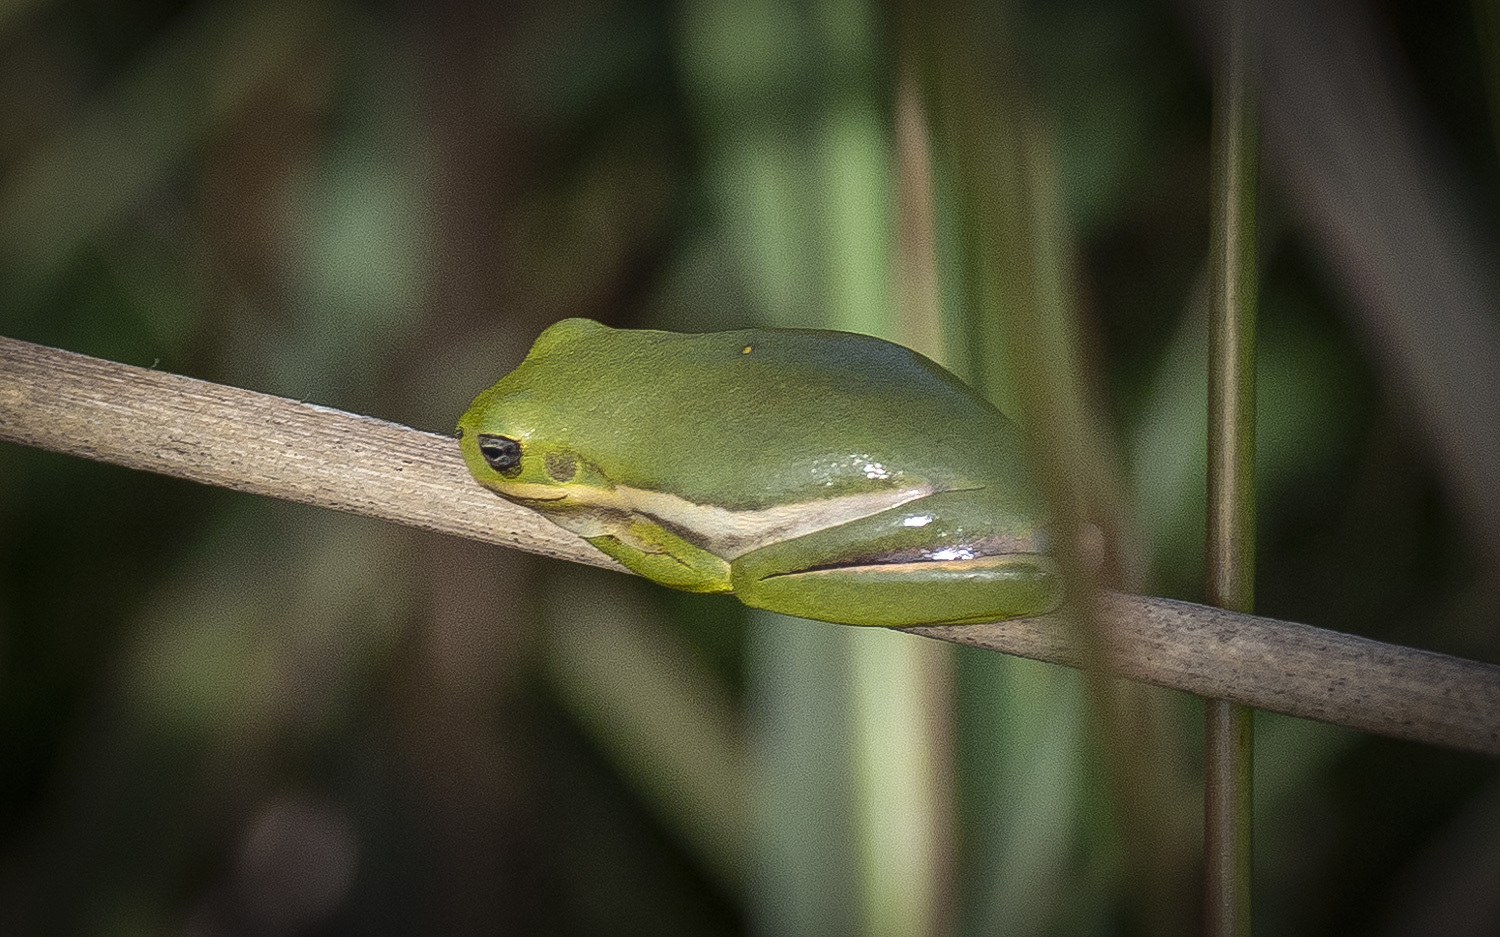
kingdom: Animalia
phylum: Chordata
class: Amphibia
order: Anura
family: Hylidae
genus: Dryophytes
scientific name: Dryophytes cinereus
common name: Green treefrog
